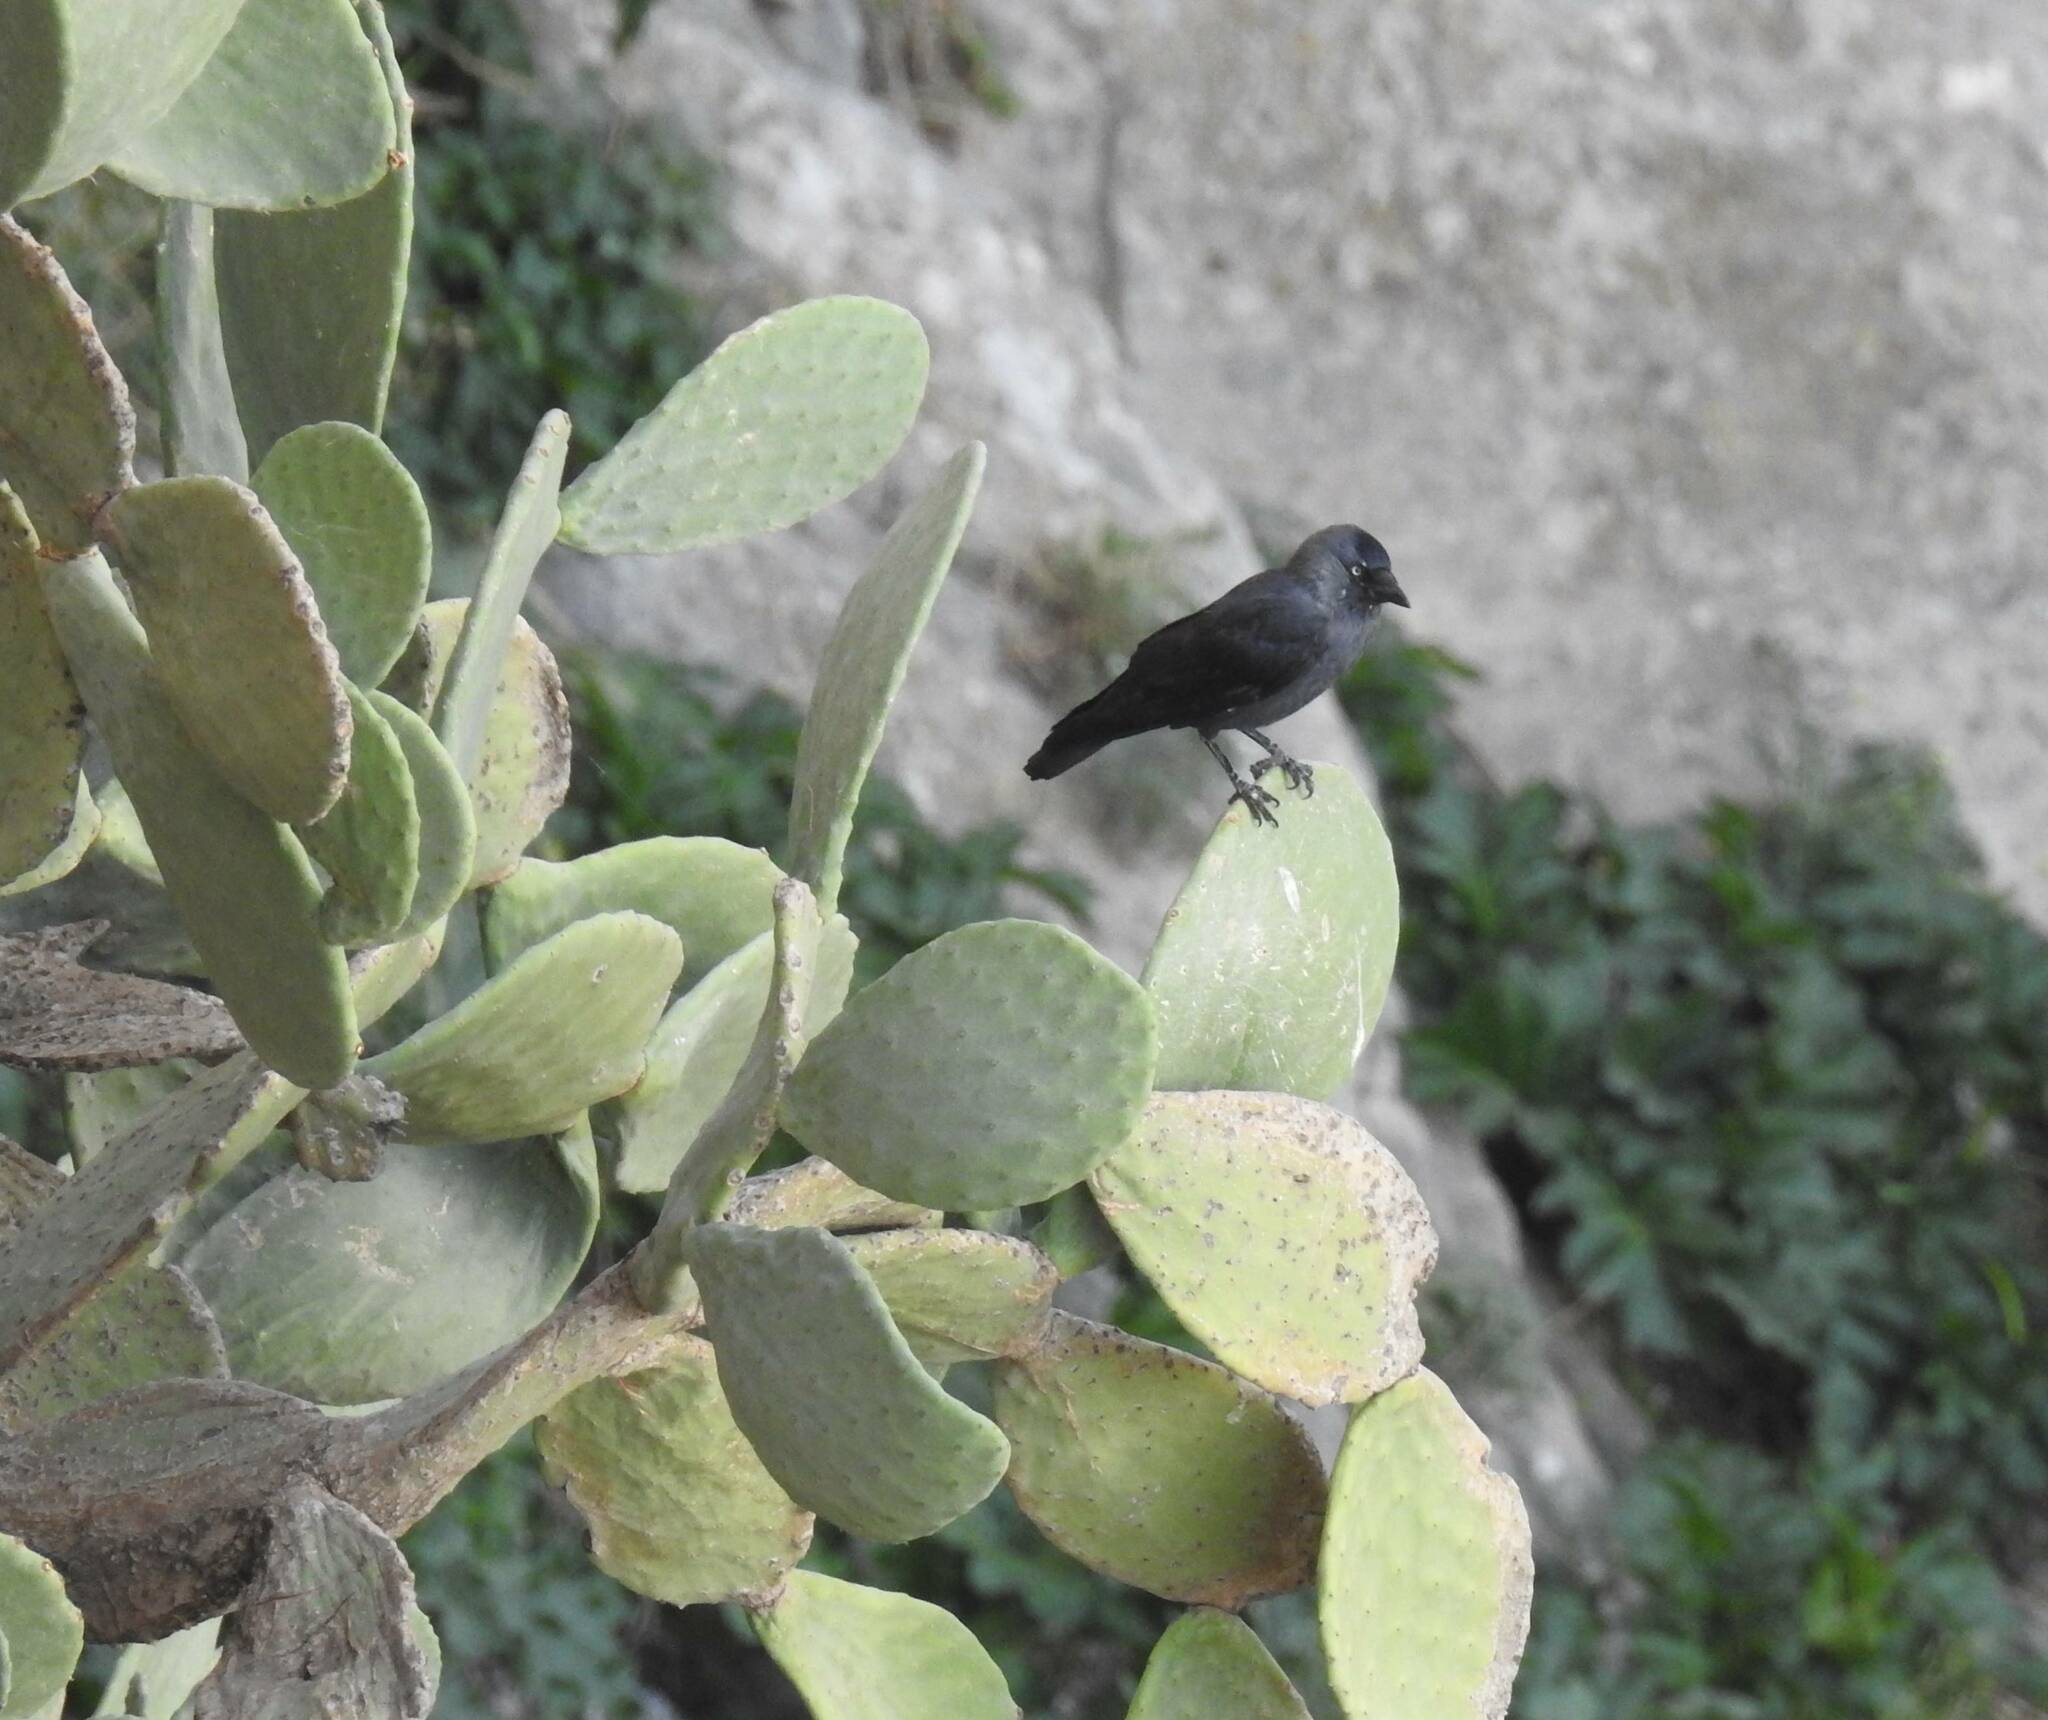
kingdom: Animalia
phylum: Chordata
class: Aves
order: Passeriformes
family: Corvidae
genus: Coloeus
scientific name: Coloeus monedula
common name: Western jackdaw
